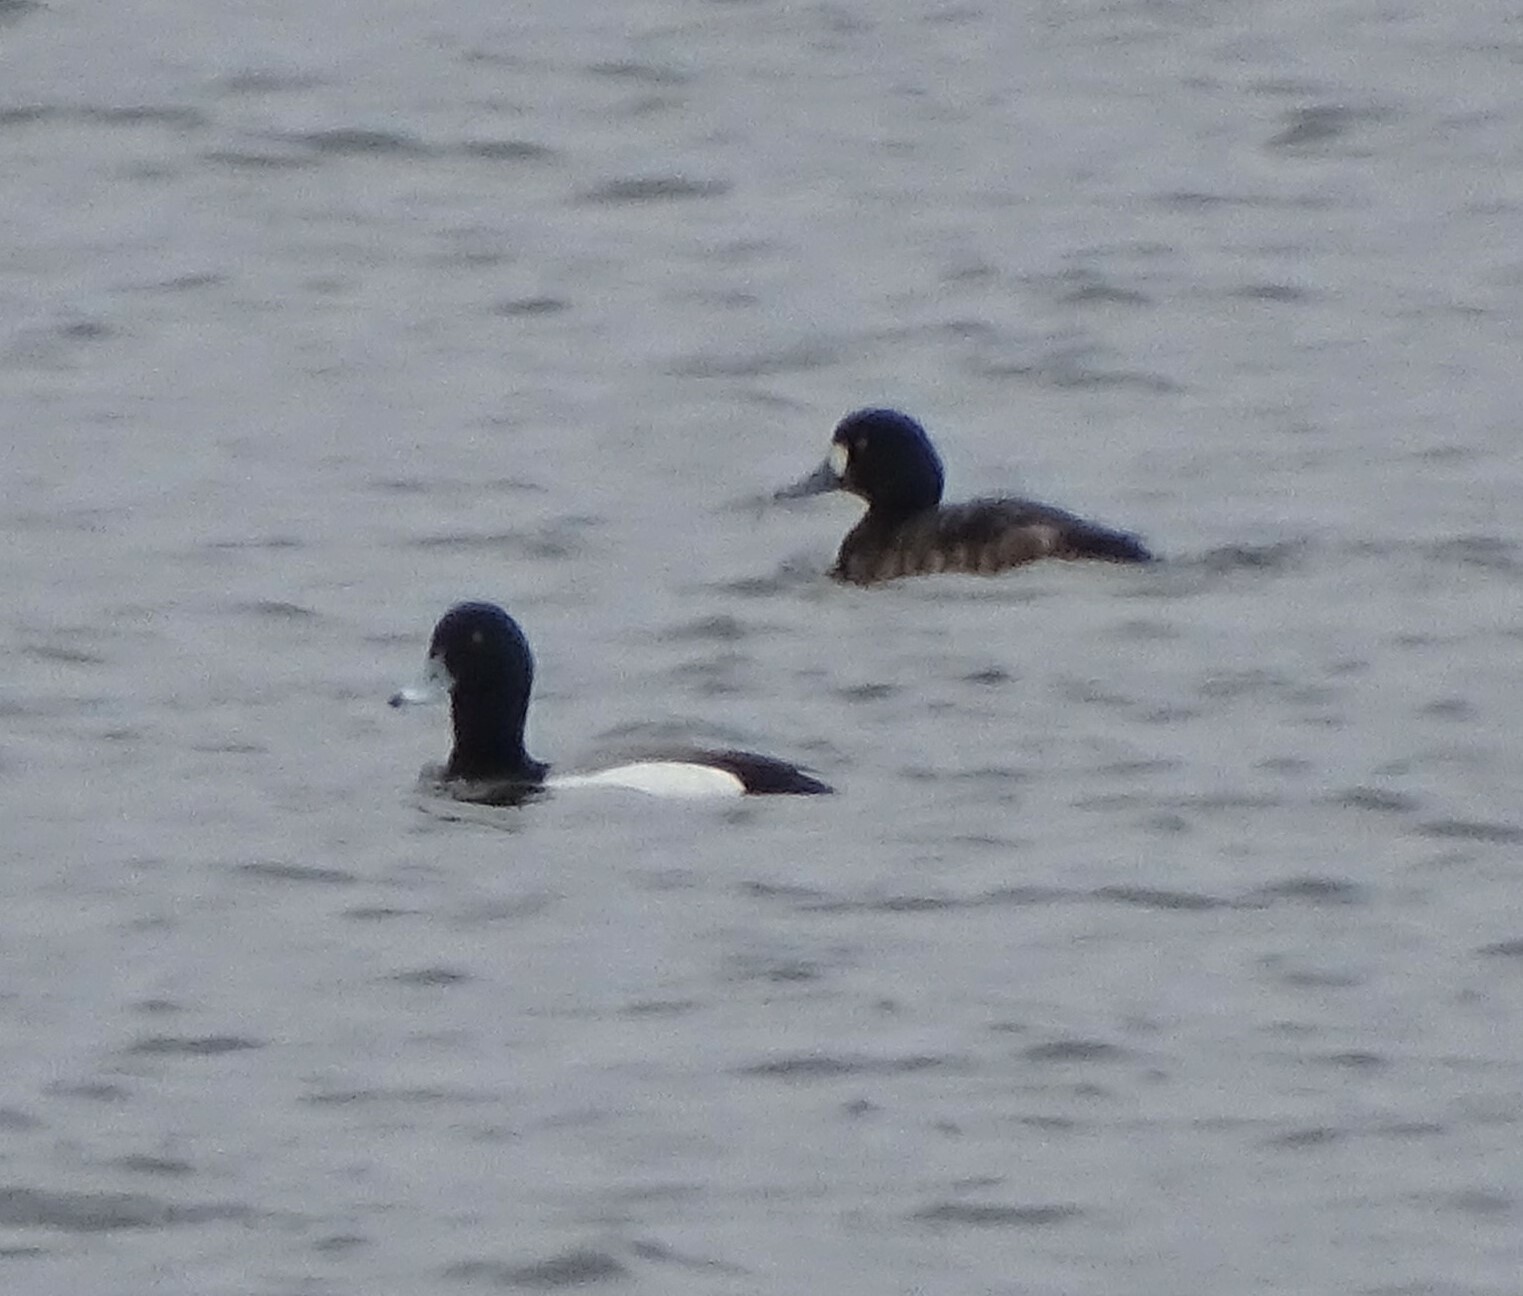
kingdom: Animalia
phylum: Chordata
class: Aves
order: Anseriformes
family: Anatidae
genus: Aythya
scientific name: Aythya marila
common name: Greater scaup
